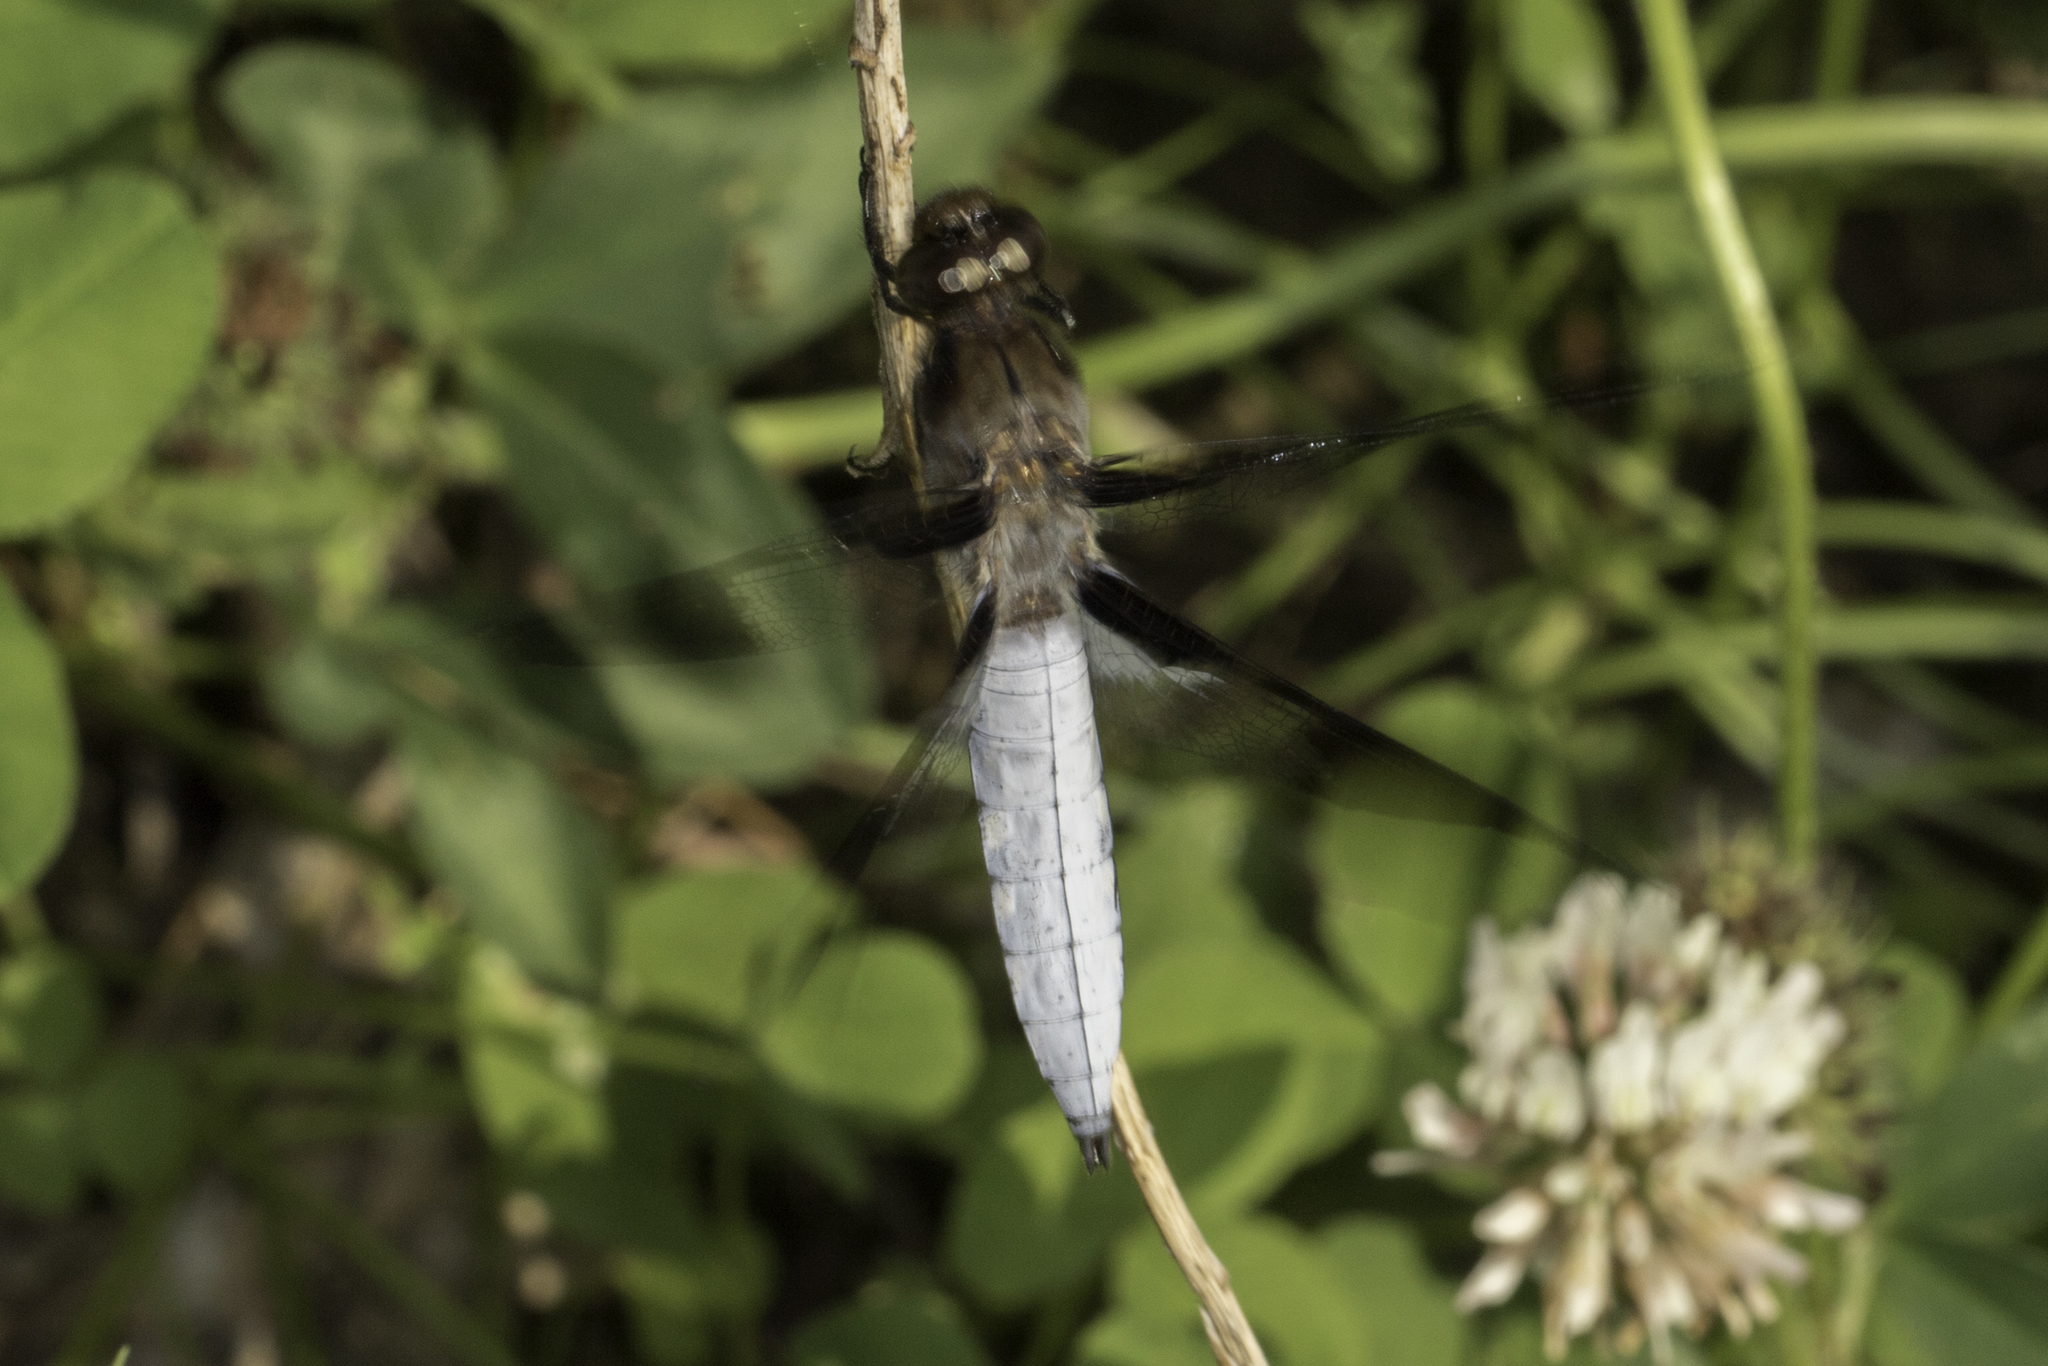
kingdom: Animalia
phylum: Arthropoda
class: Insecta
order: Odonata
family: Libellulidae
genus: Plathemis
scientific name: Plathemis lydia
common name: Common whitetail
